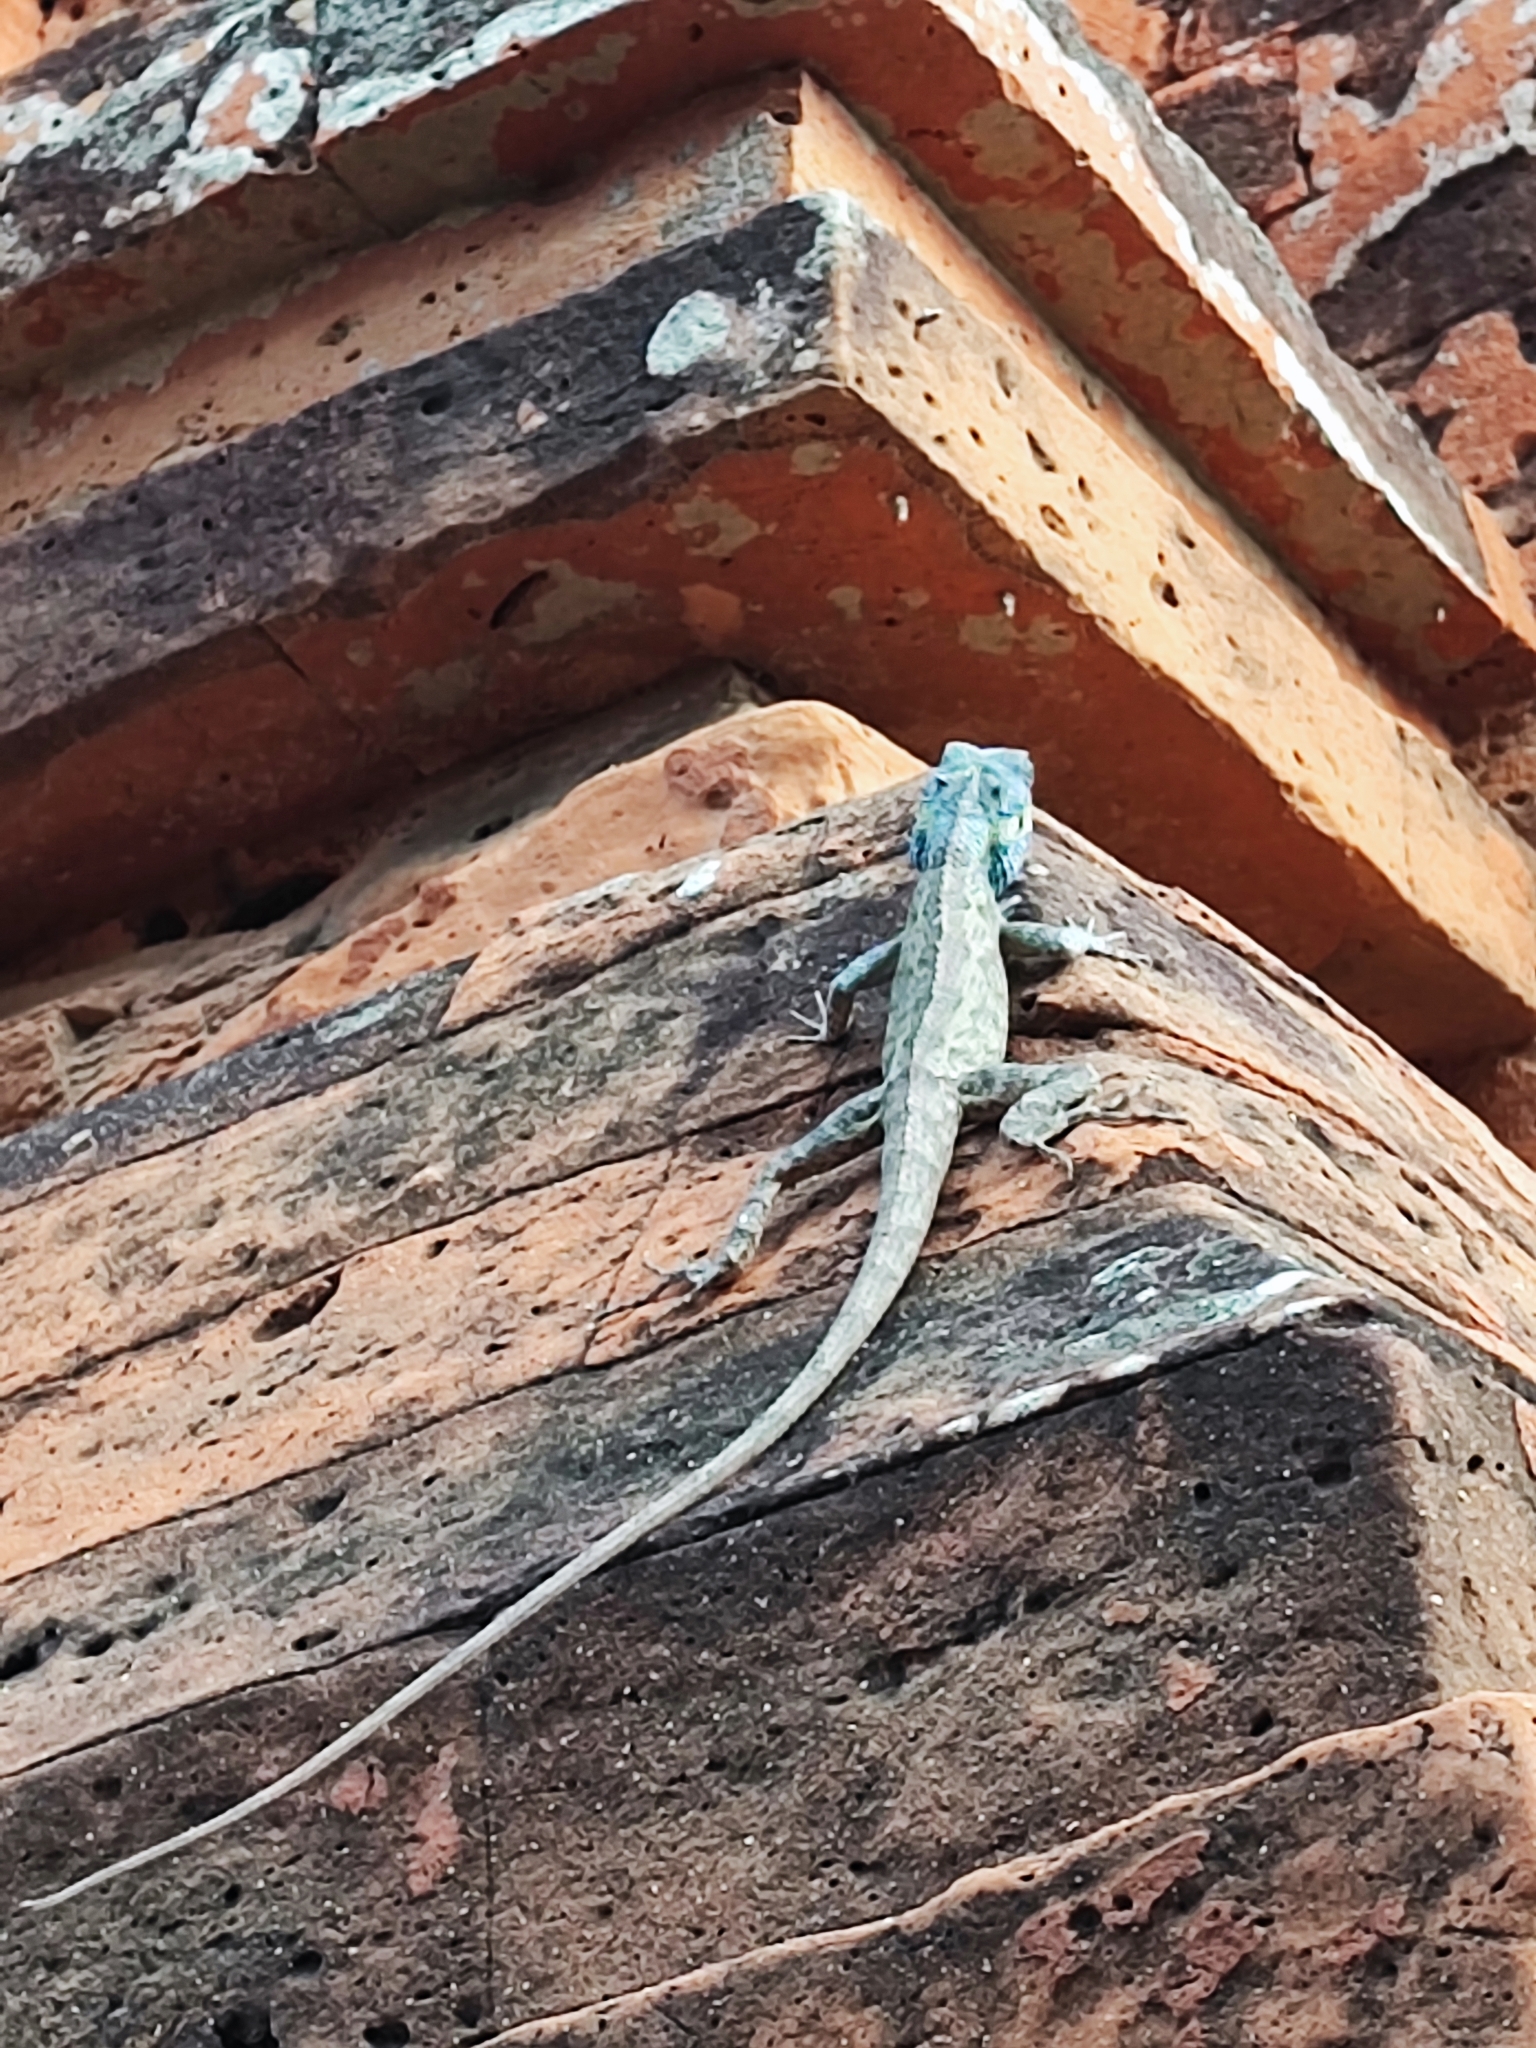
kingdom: Animalia
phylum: Chordata
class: Squamata
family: Agamidae
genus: Calotes
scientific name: Calotes bachae
